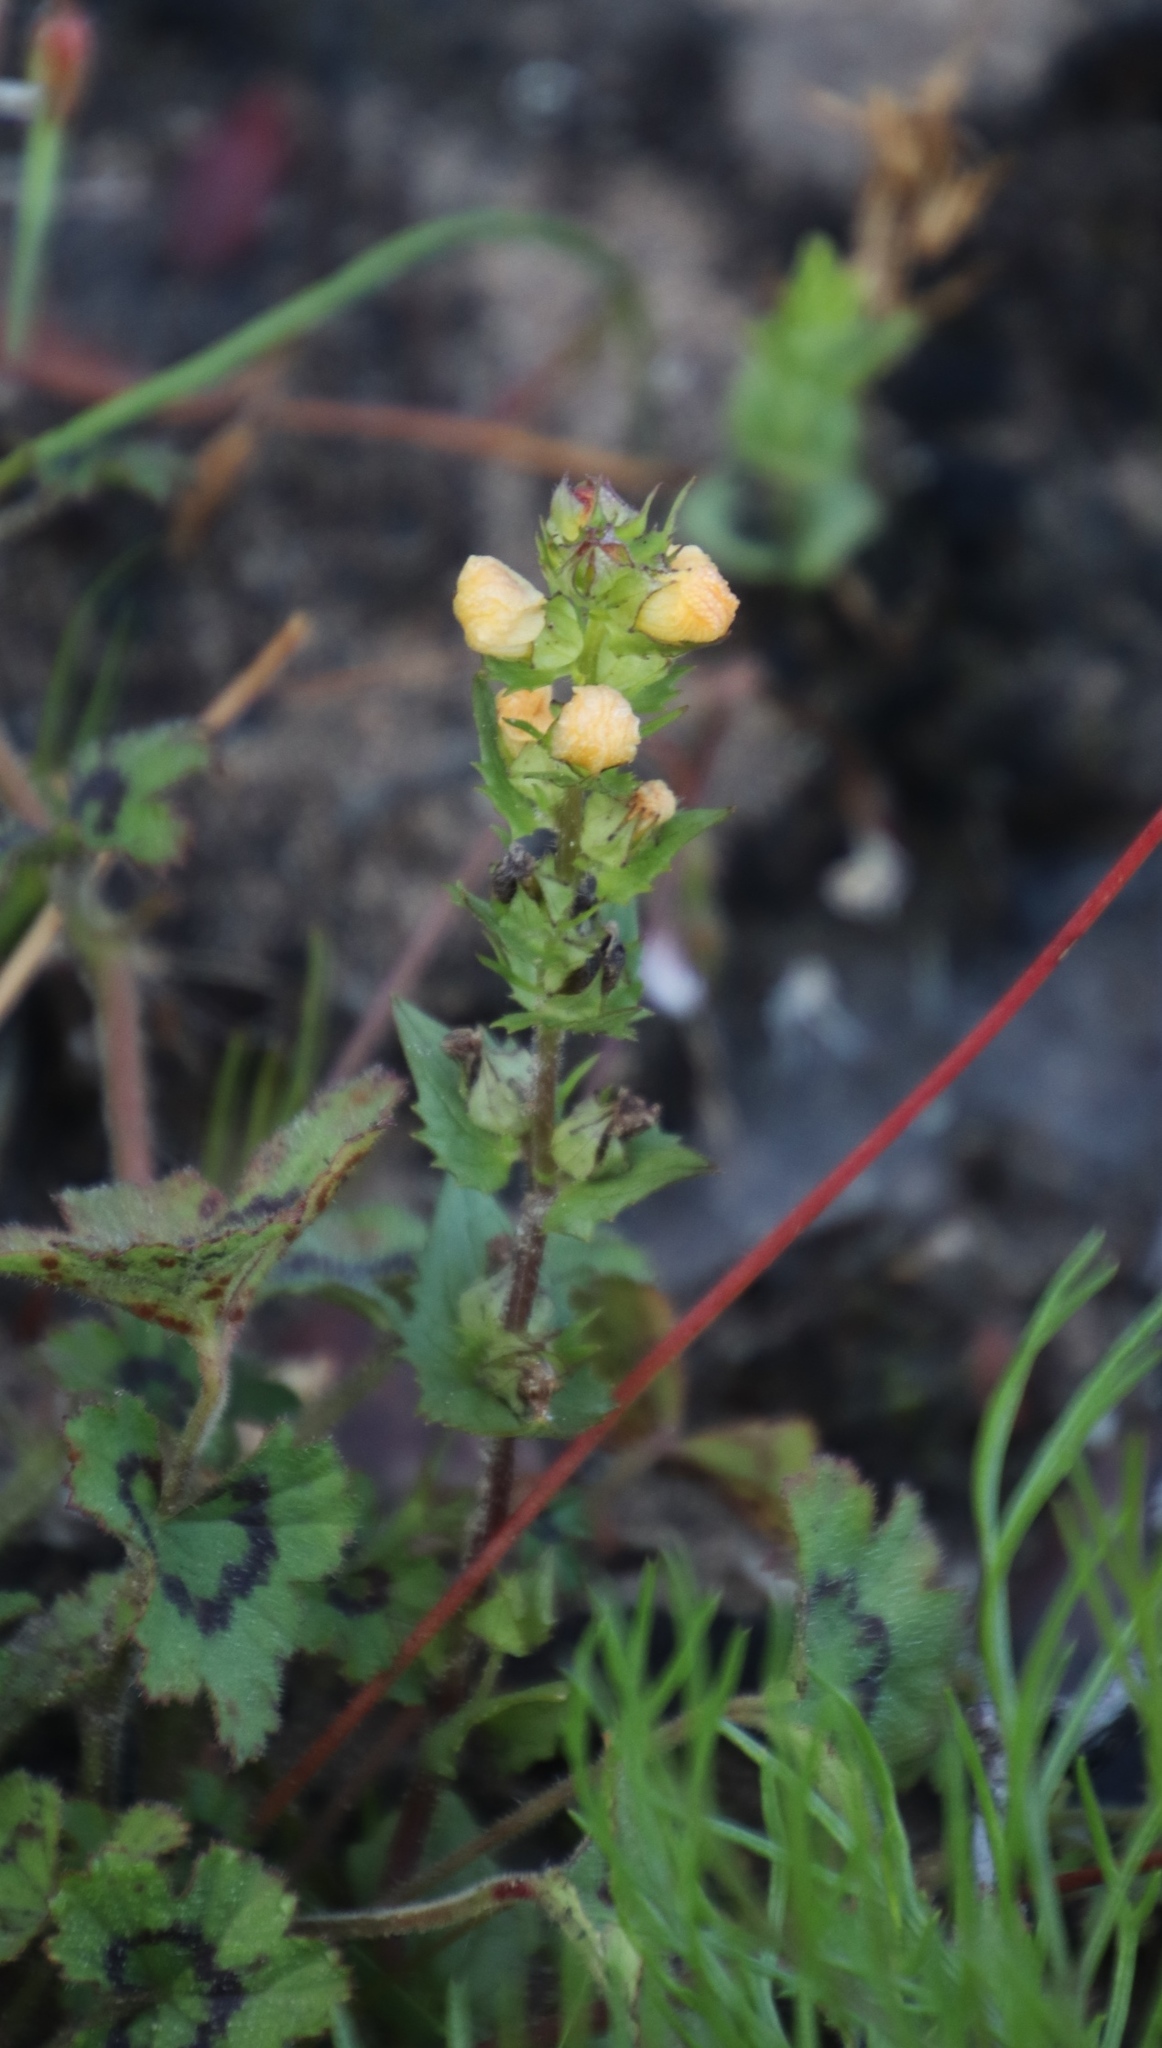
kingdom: Plantae
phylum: Tracheophyta
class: Magnoliopsida
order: Lamiales
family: Orobanchaceae
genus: Alectra
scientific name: Alectra sessiliflora
